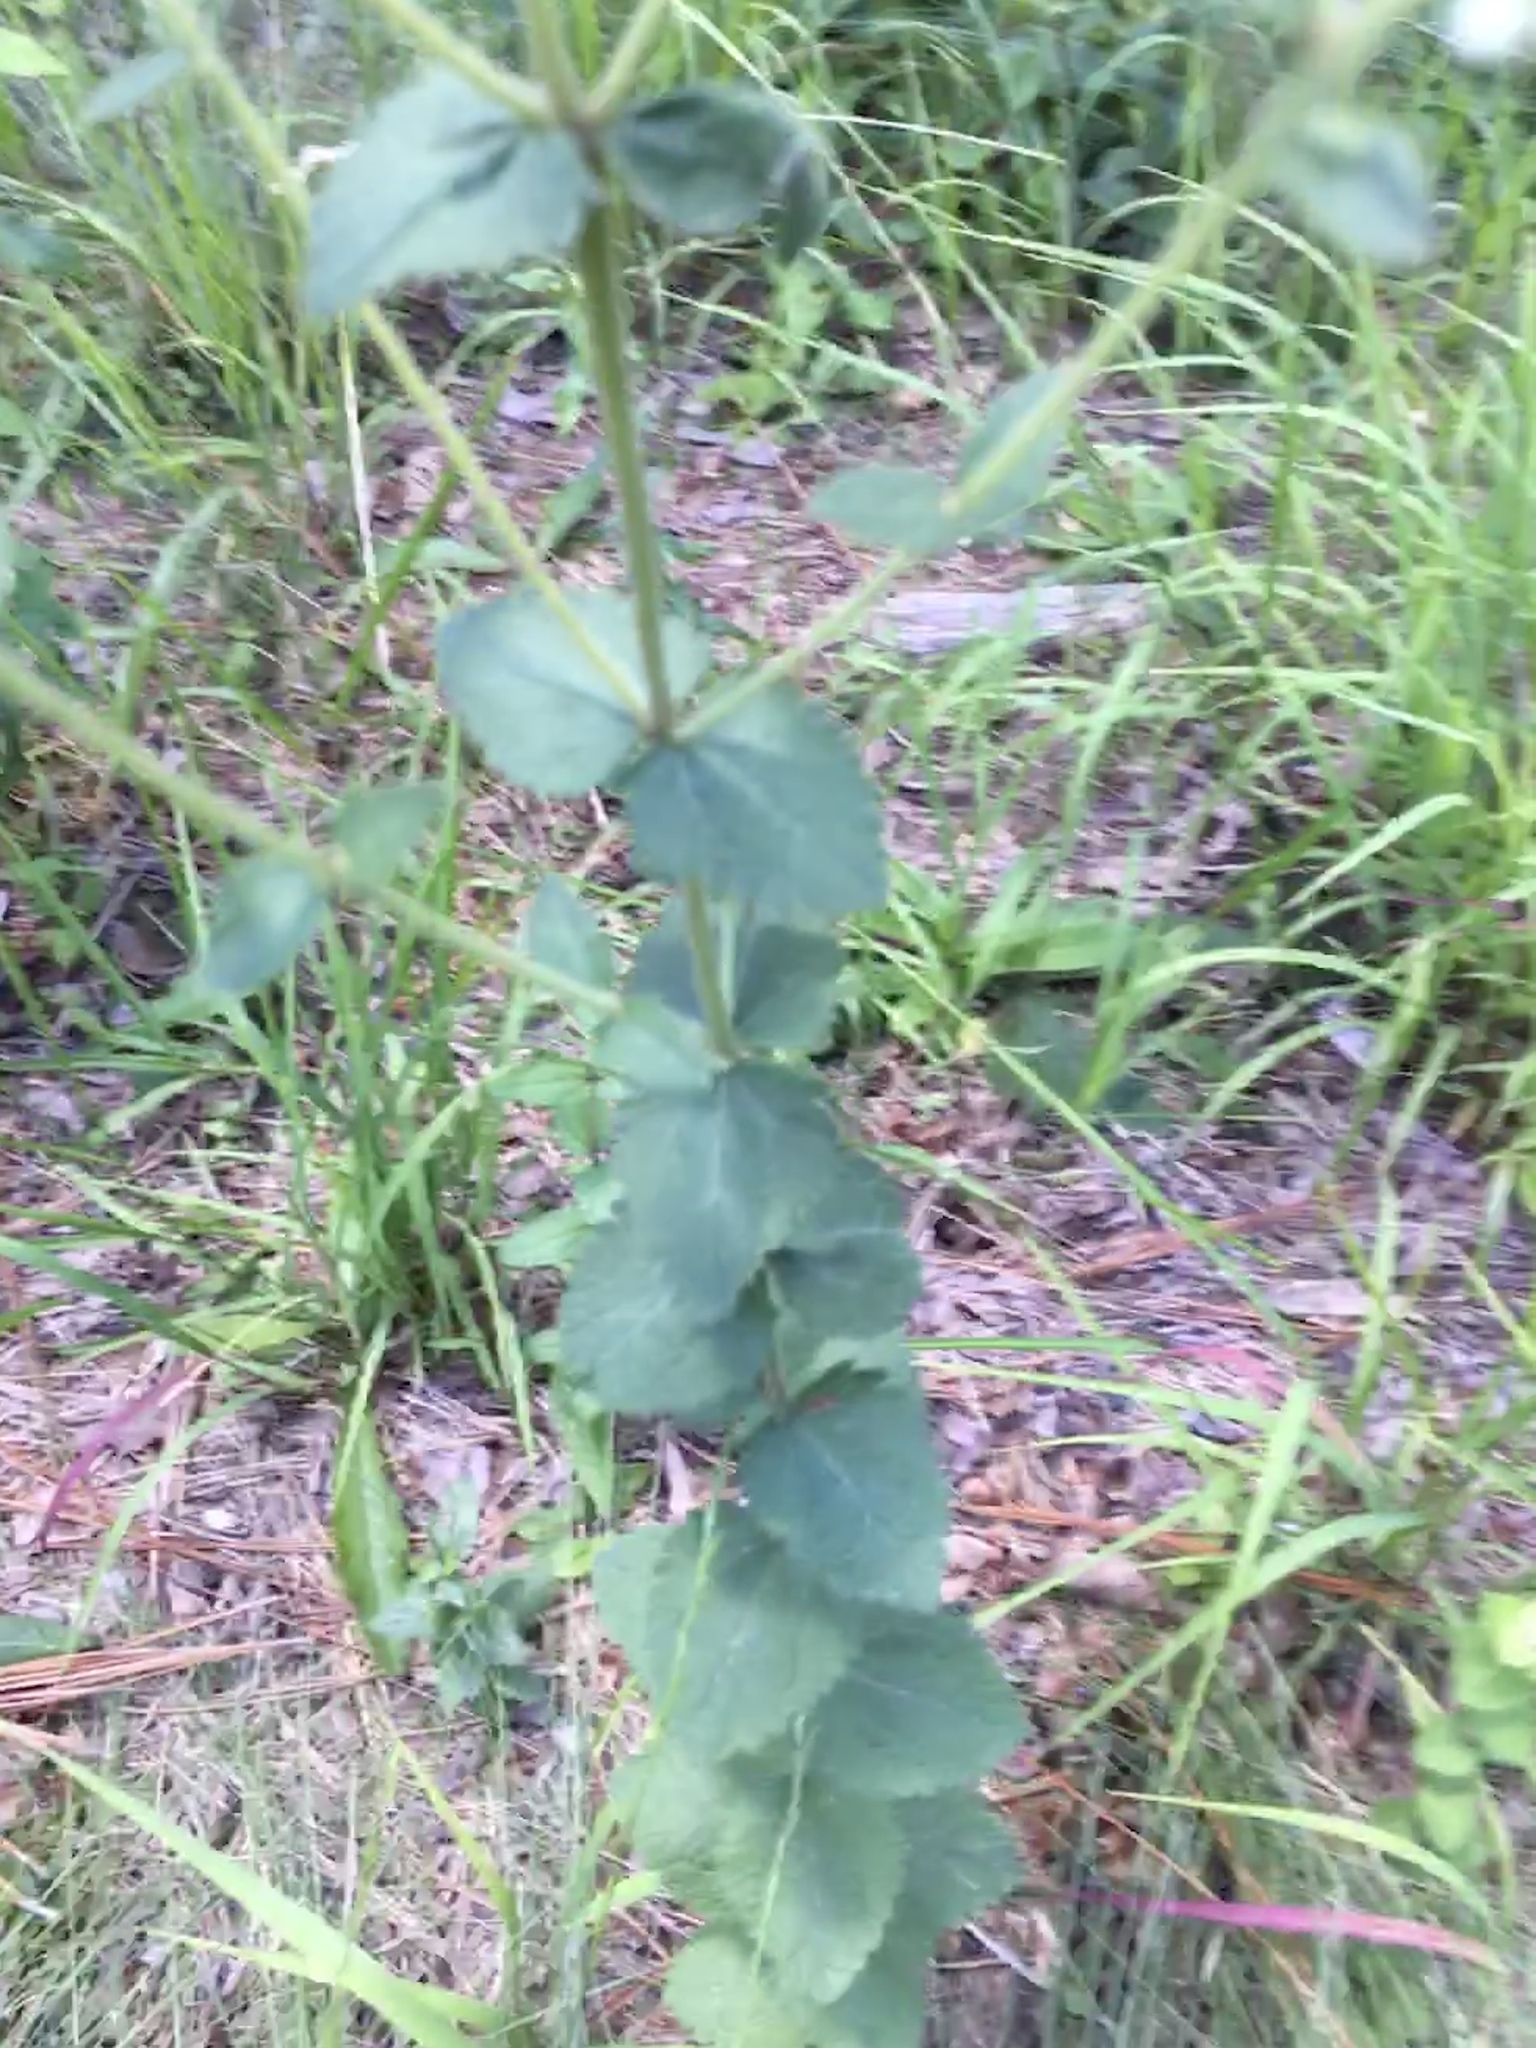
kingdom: Plantae
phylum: Tracheophyta
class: Magnoliopsida
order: Asterales
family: Asteraceae
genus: Eupatorium
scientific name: Eupatorium rotundifolium
